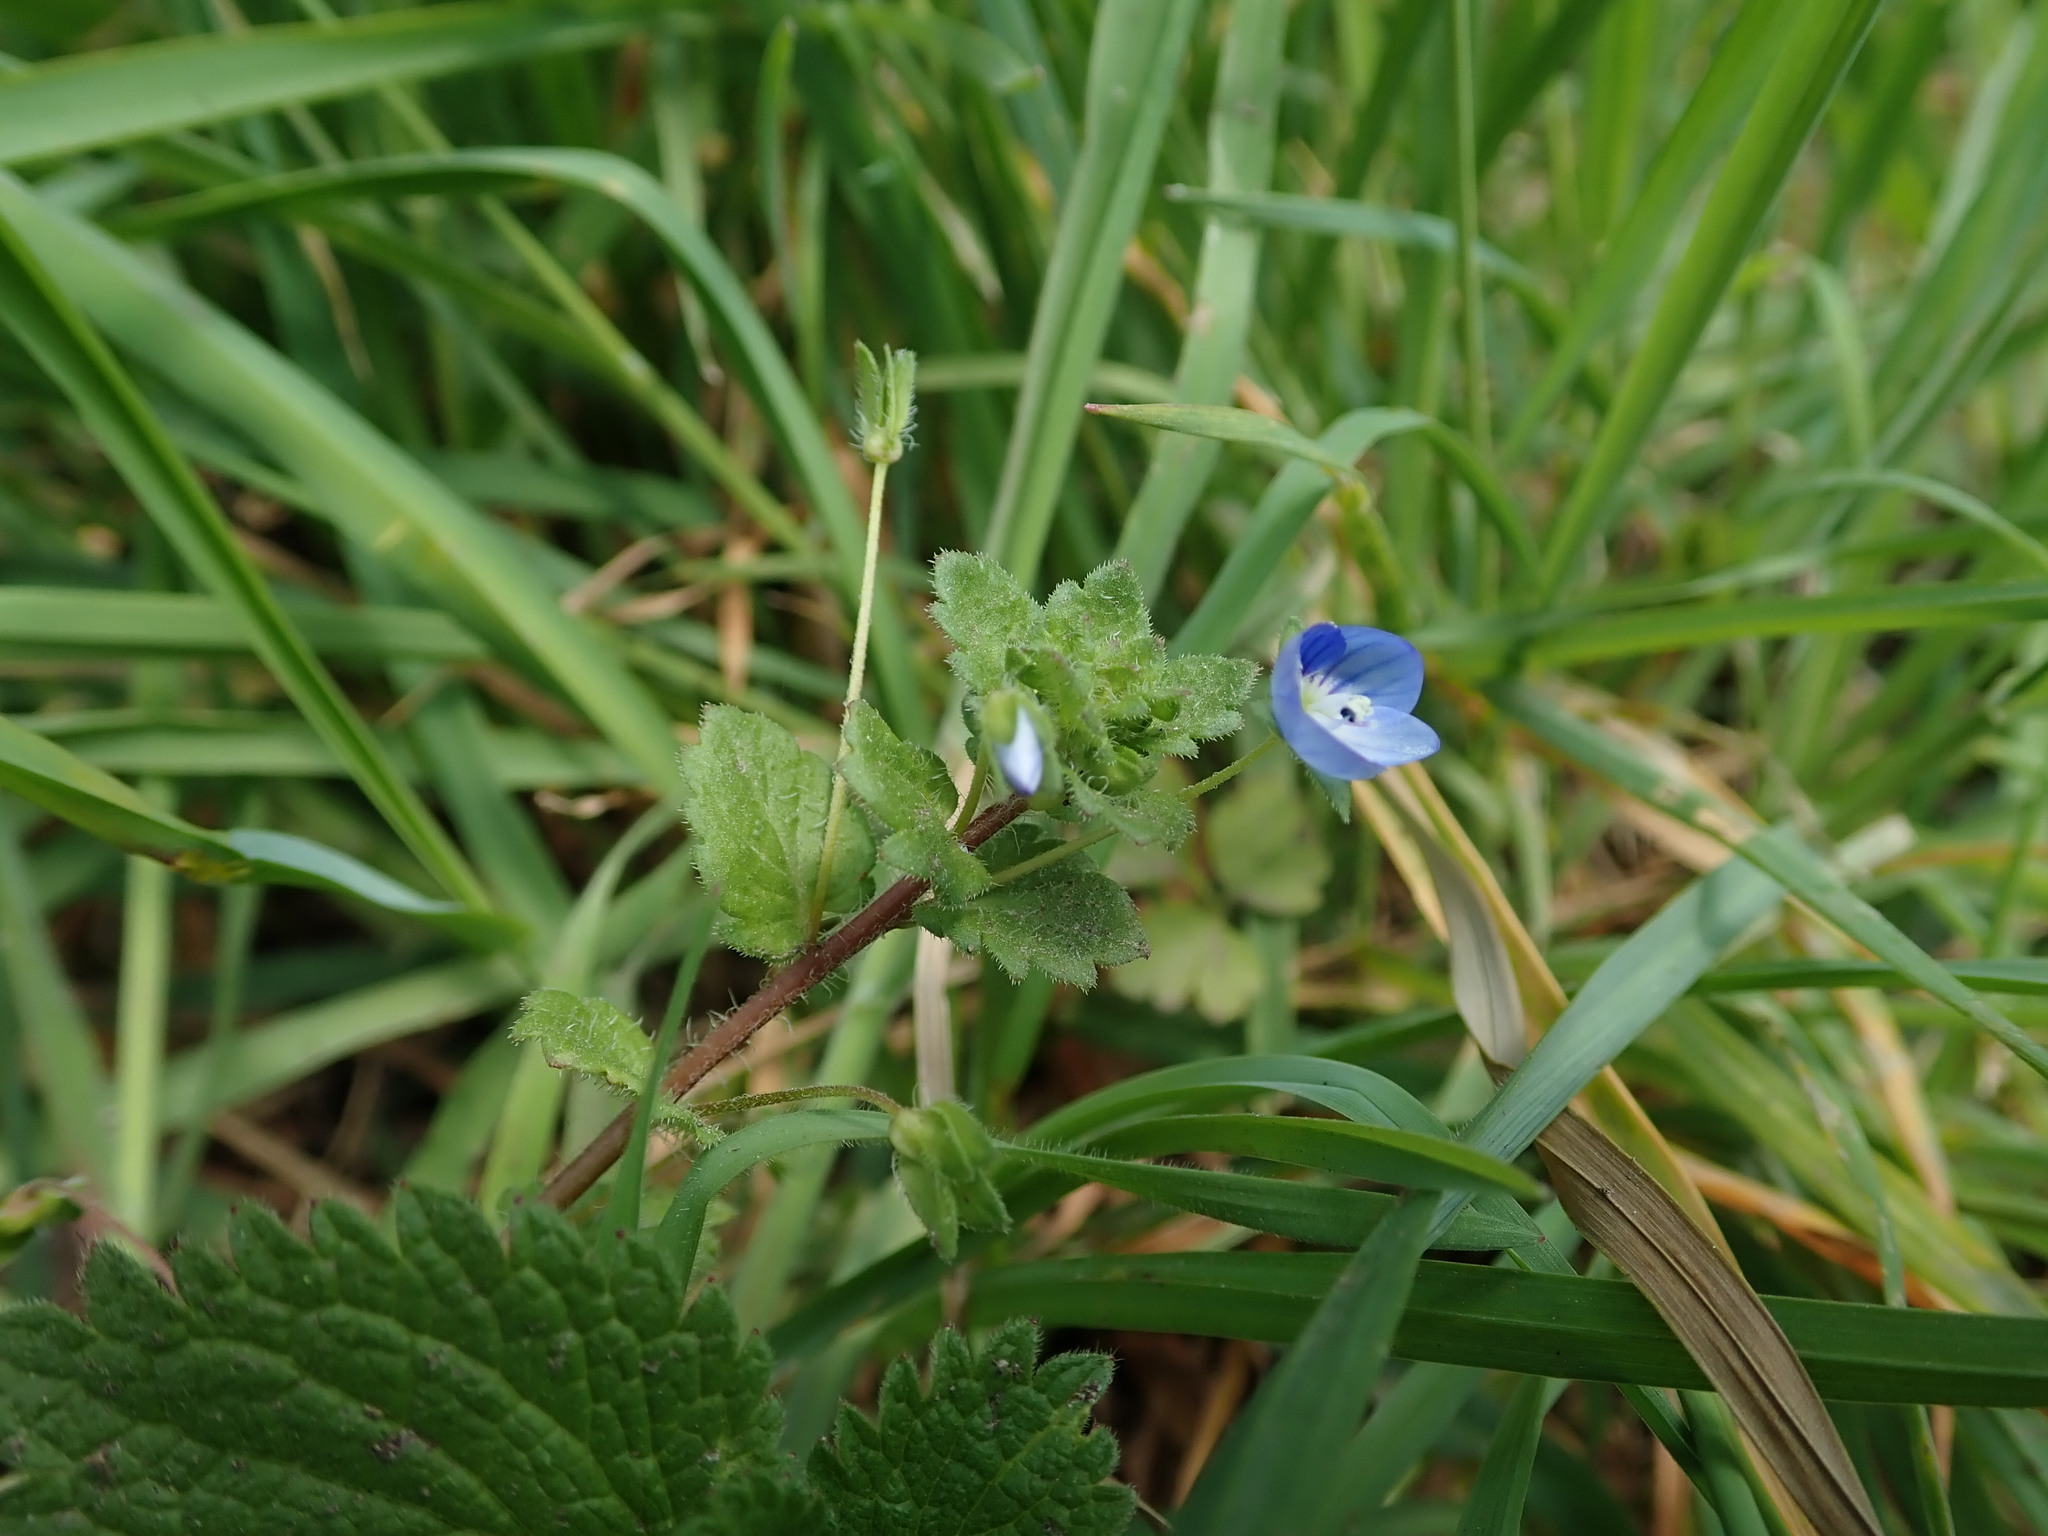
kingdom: Plantae
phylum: Tracheophyta
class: Magnoliopsida
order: Lamiales
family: Plantaginaceae
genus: Veronica
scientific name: Veronica persica
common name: Common field-speedwell
